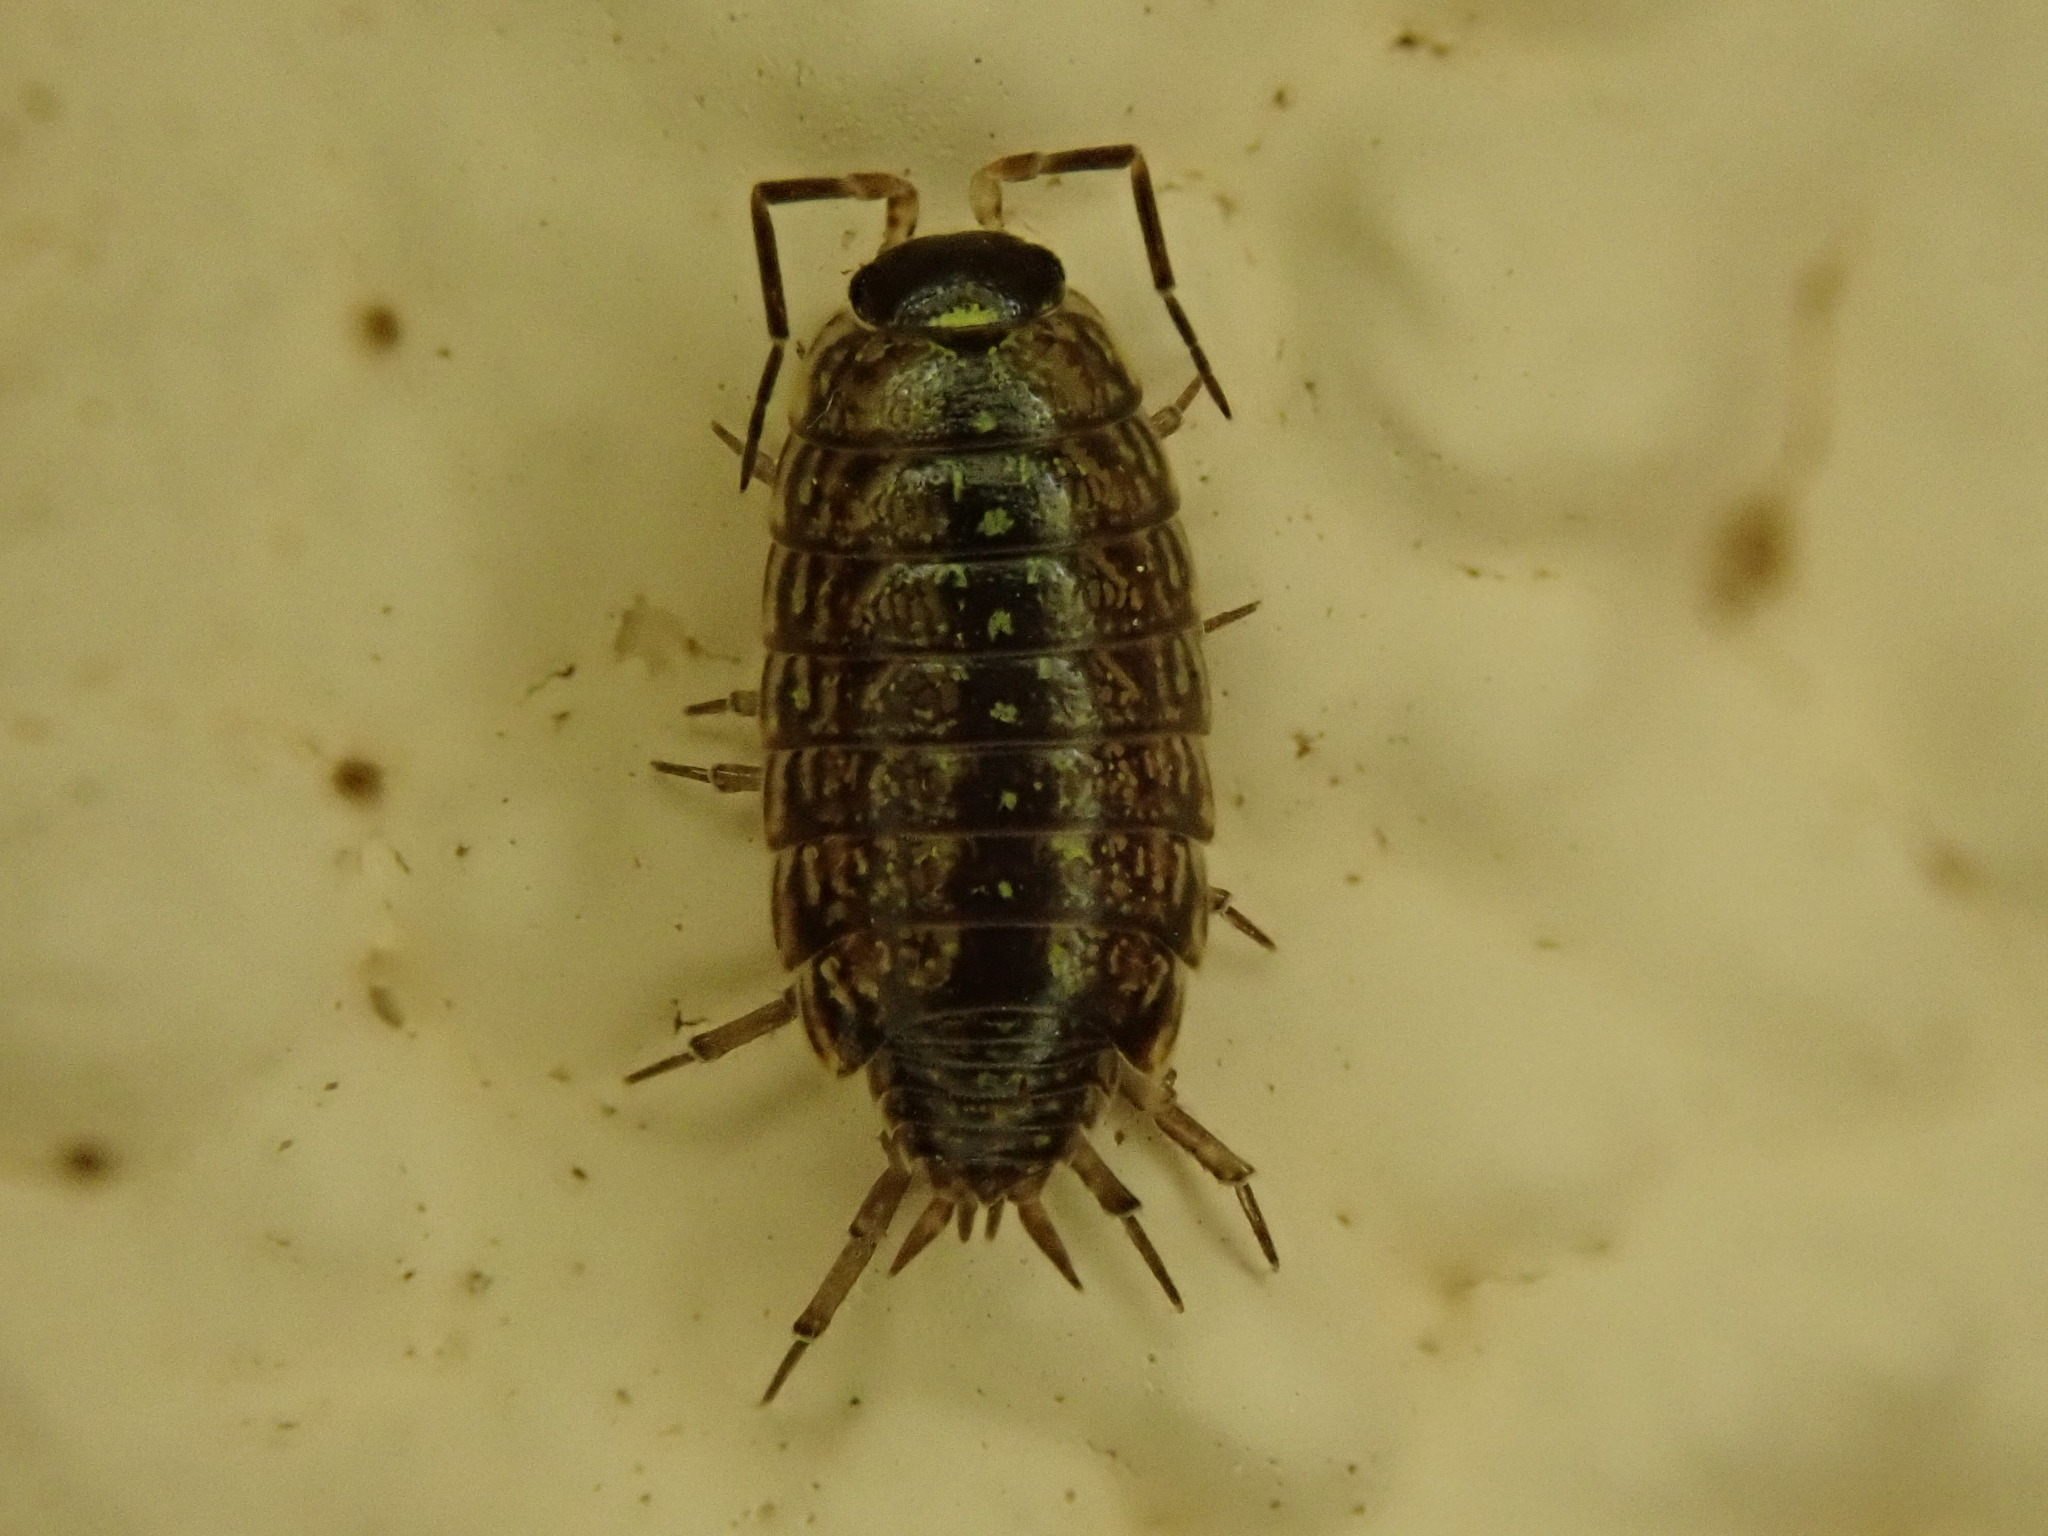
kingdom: Animalia
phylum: Arthropoda
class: Malacostraca
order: Isopoda
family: Philosciidae
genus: Philoscia
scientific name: Philoscia muscorum
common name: Common striped woodlouse
